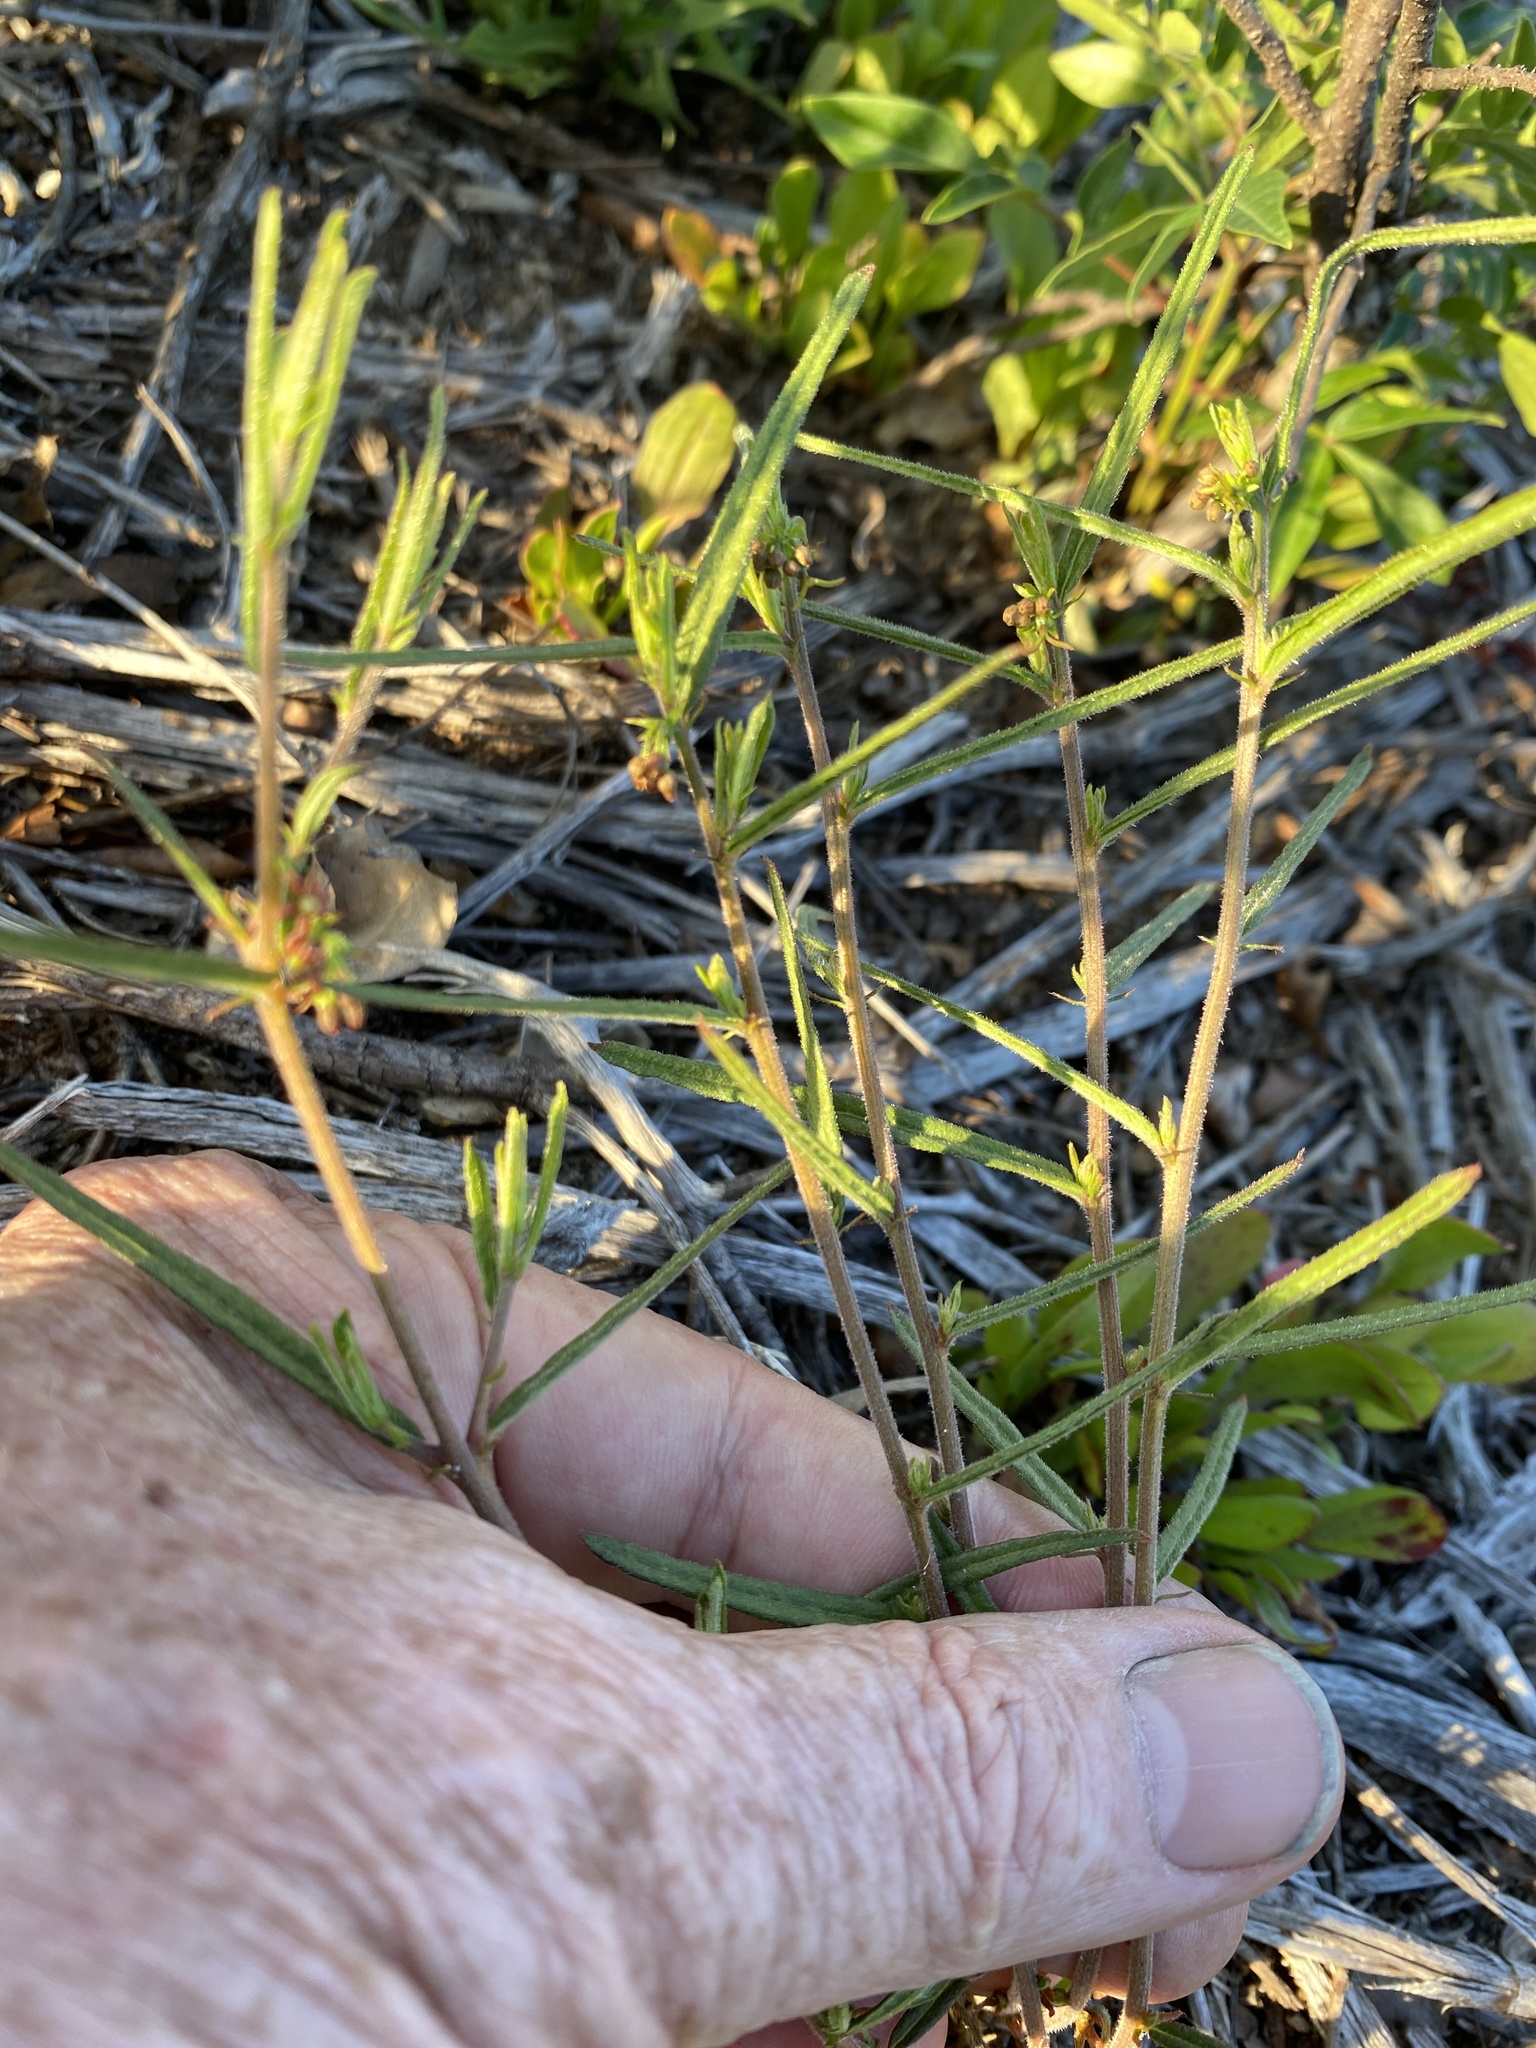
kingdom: Plantae
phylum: Tracheophyta
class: Magnoliopsida
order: Malpighiales
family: Euphorbiaceae
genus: Tragia
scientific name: Tragia urens
